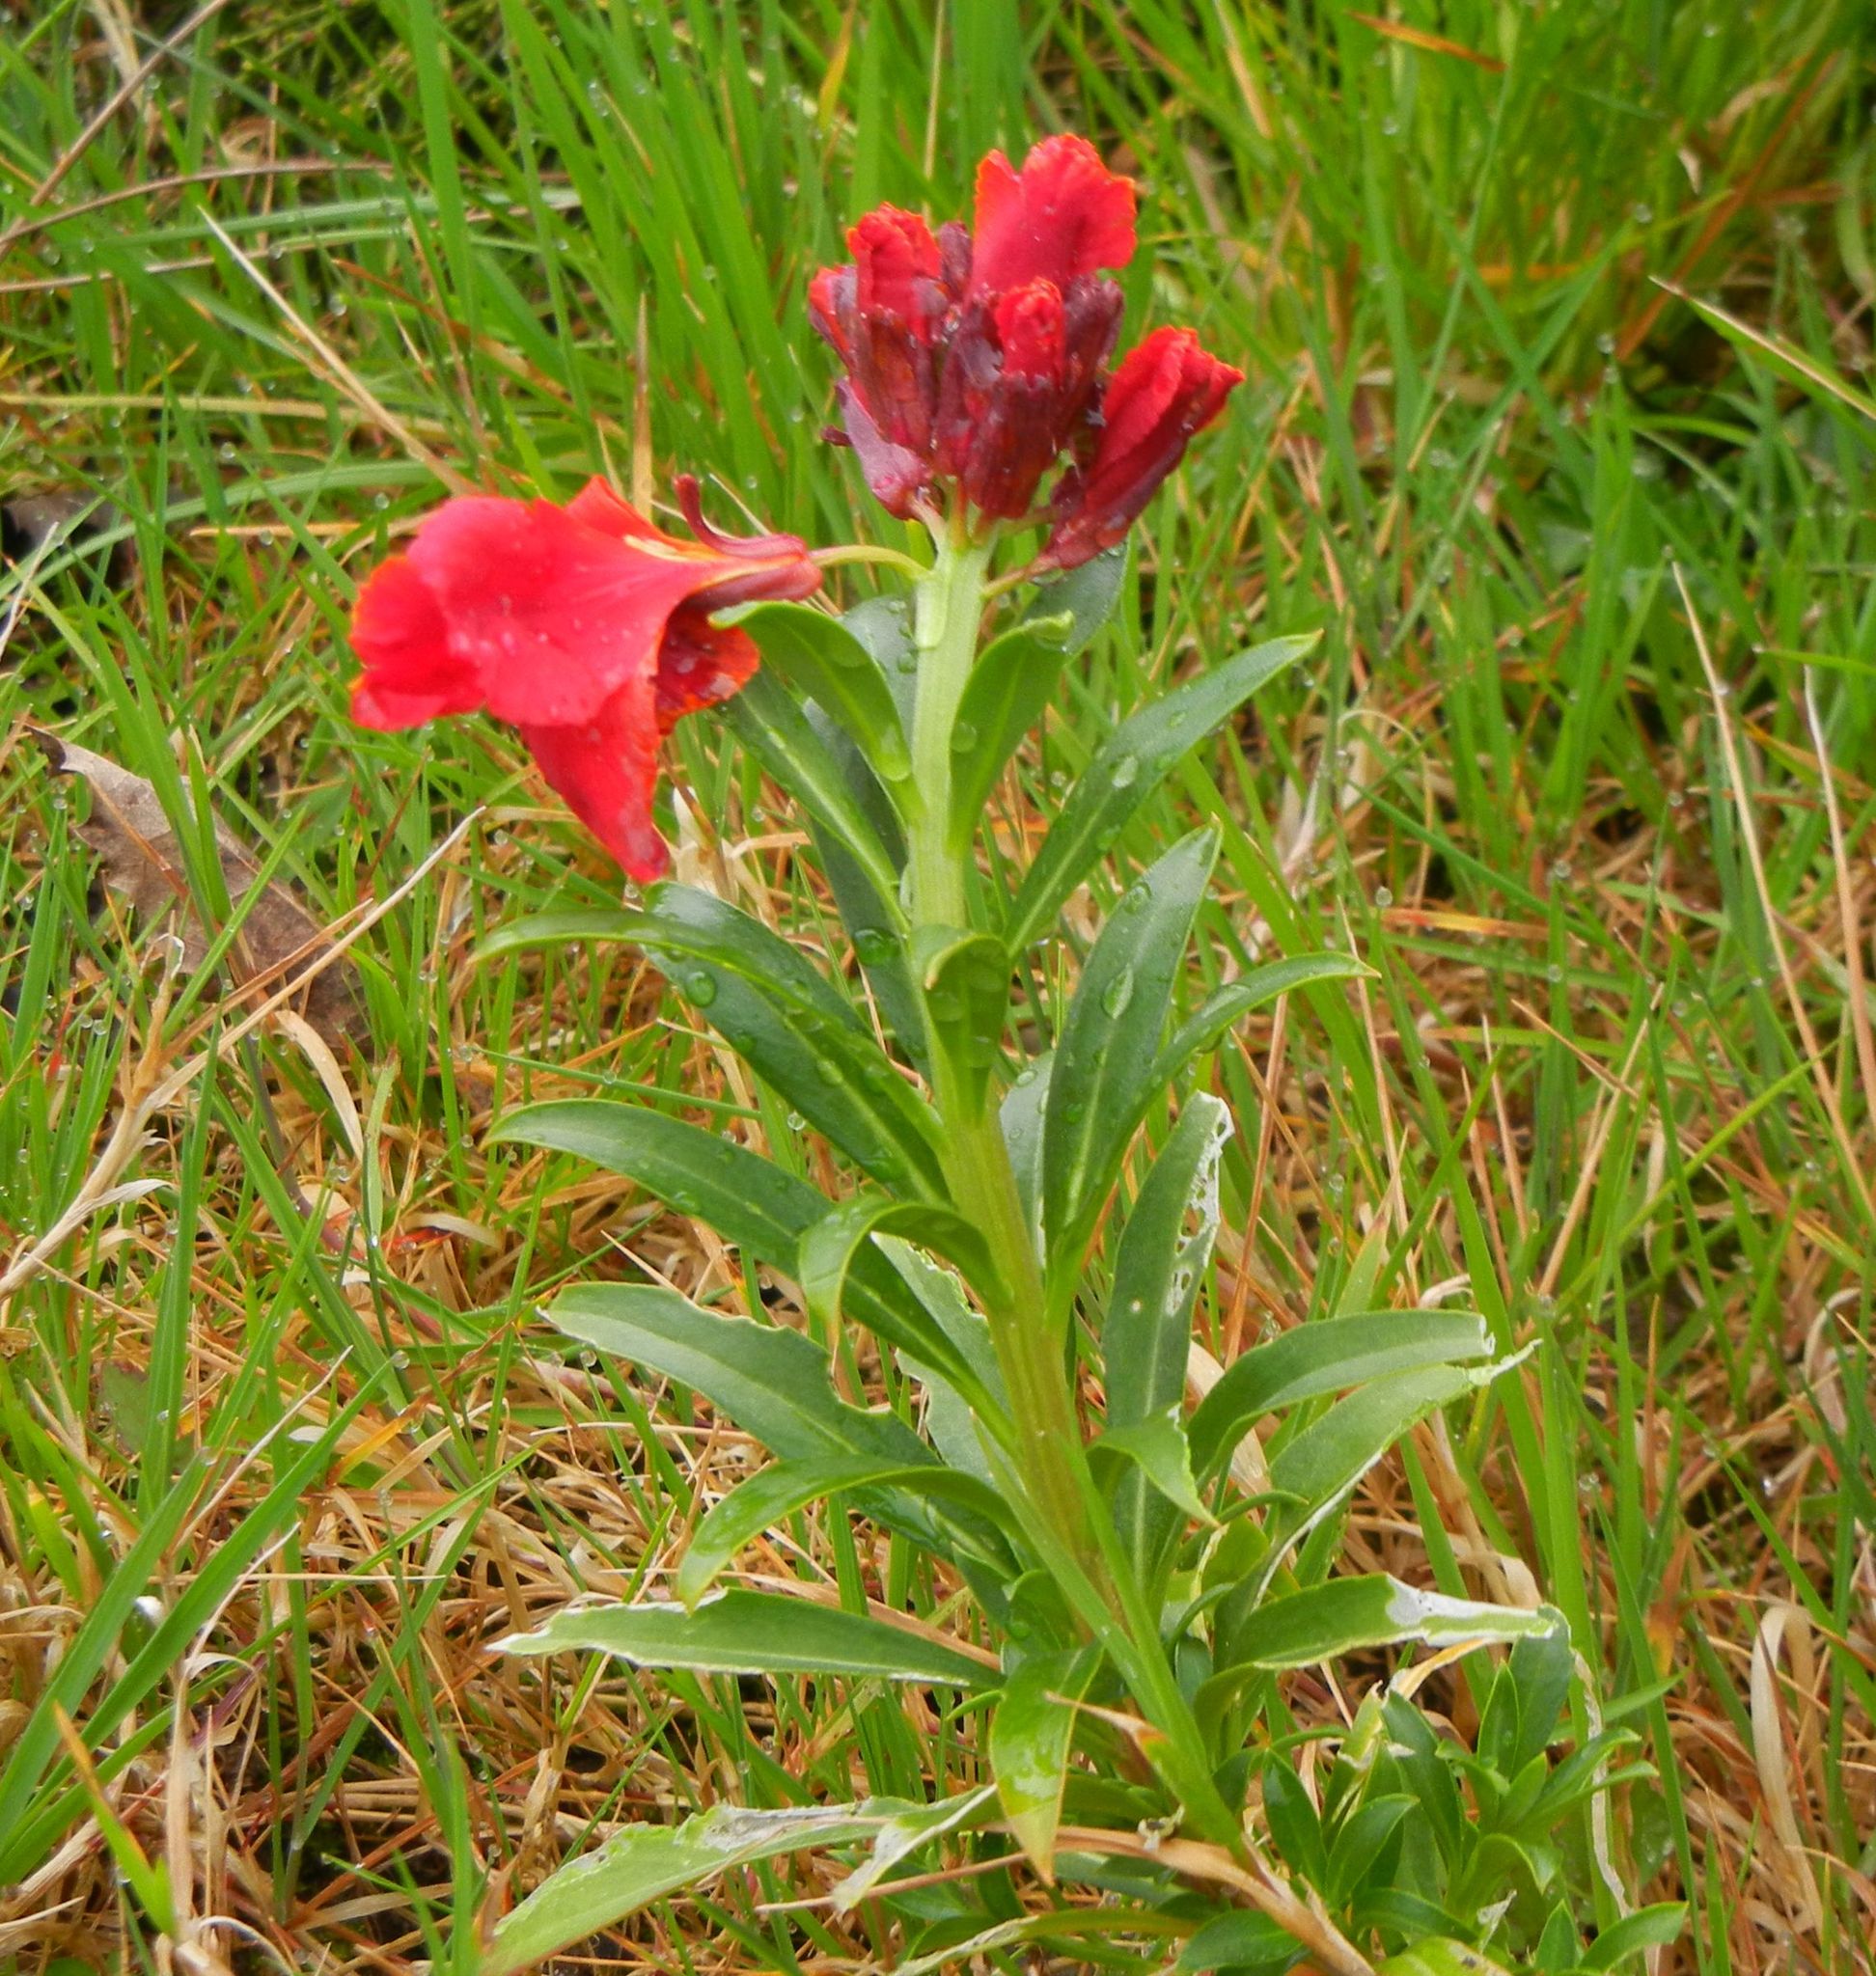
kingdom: Plantae
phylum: Tracheophyta
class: Magnoliopsida
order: Brassicales
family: Brassicaceae
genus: Erysimum
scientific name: Erysimum cheiri
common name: Wallflower
